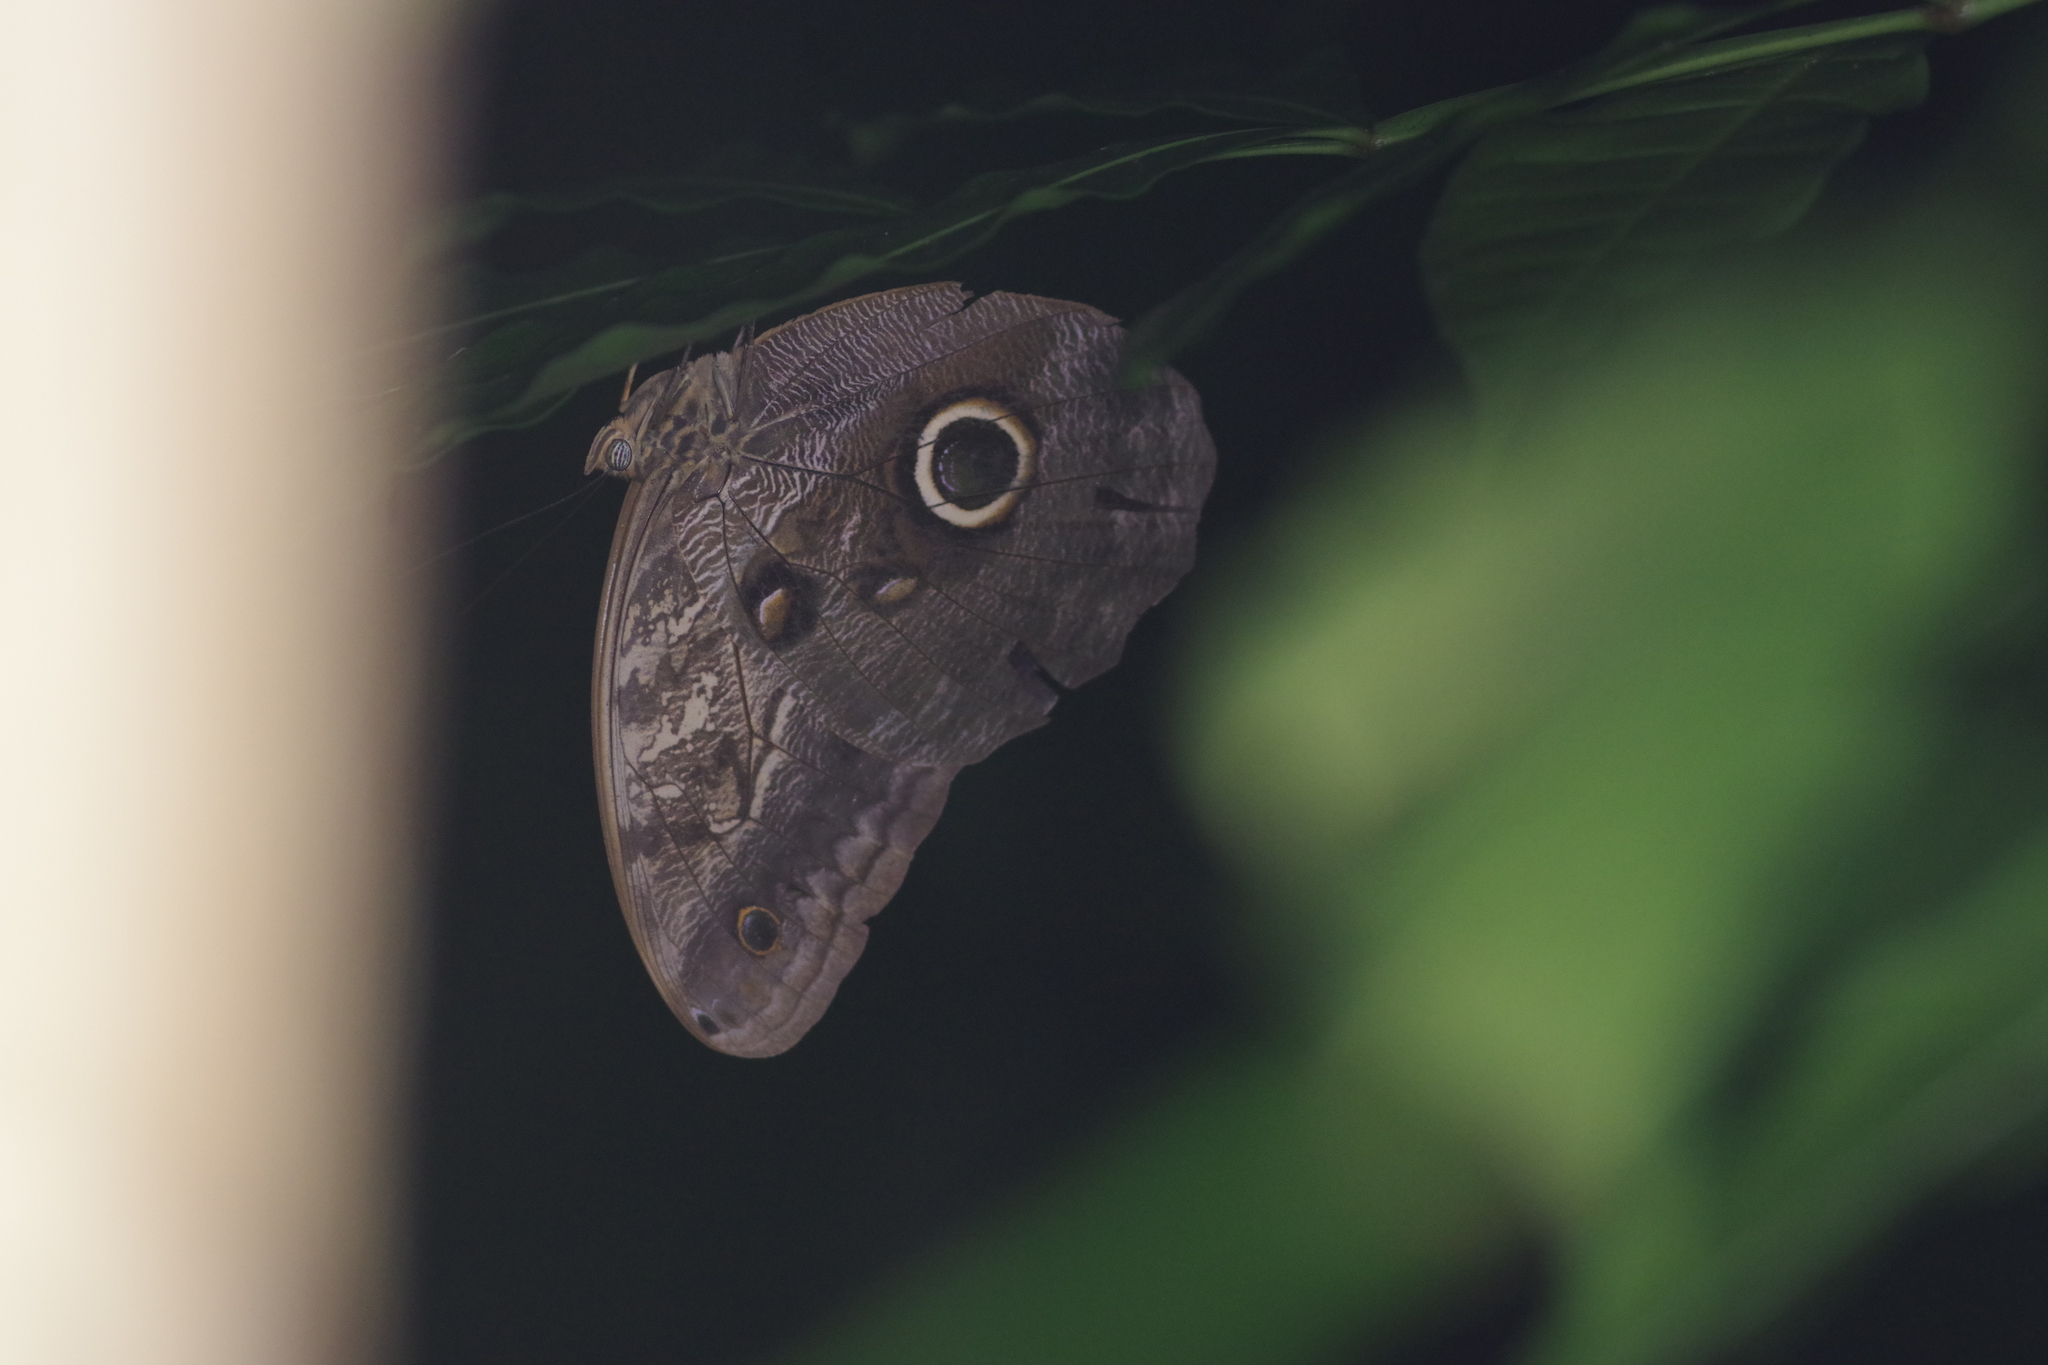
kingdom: Animalia
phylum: Arthropoda
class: Insecta
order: Lepidoptera
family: Nymphalidae
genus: Caligo
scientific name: Caligo telamonius
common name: Pale owl-butterfly
